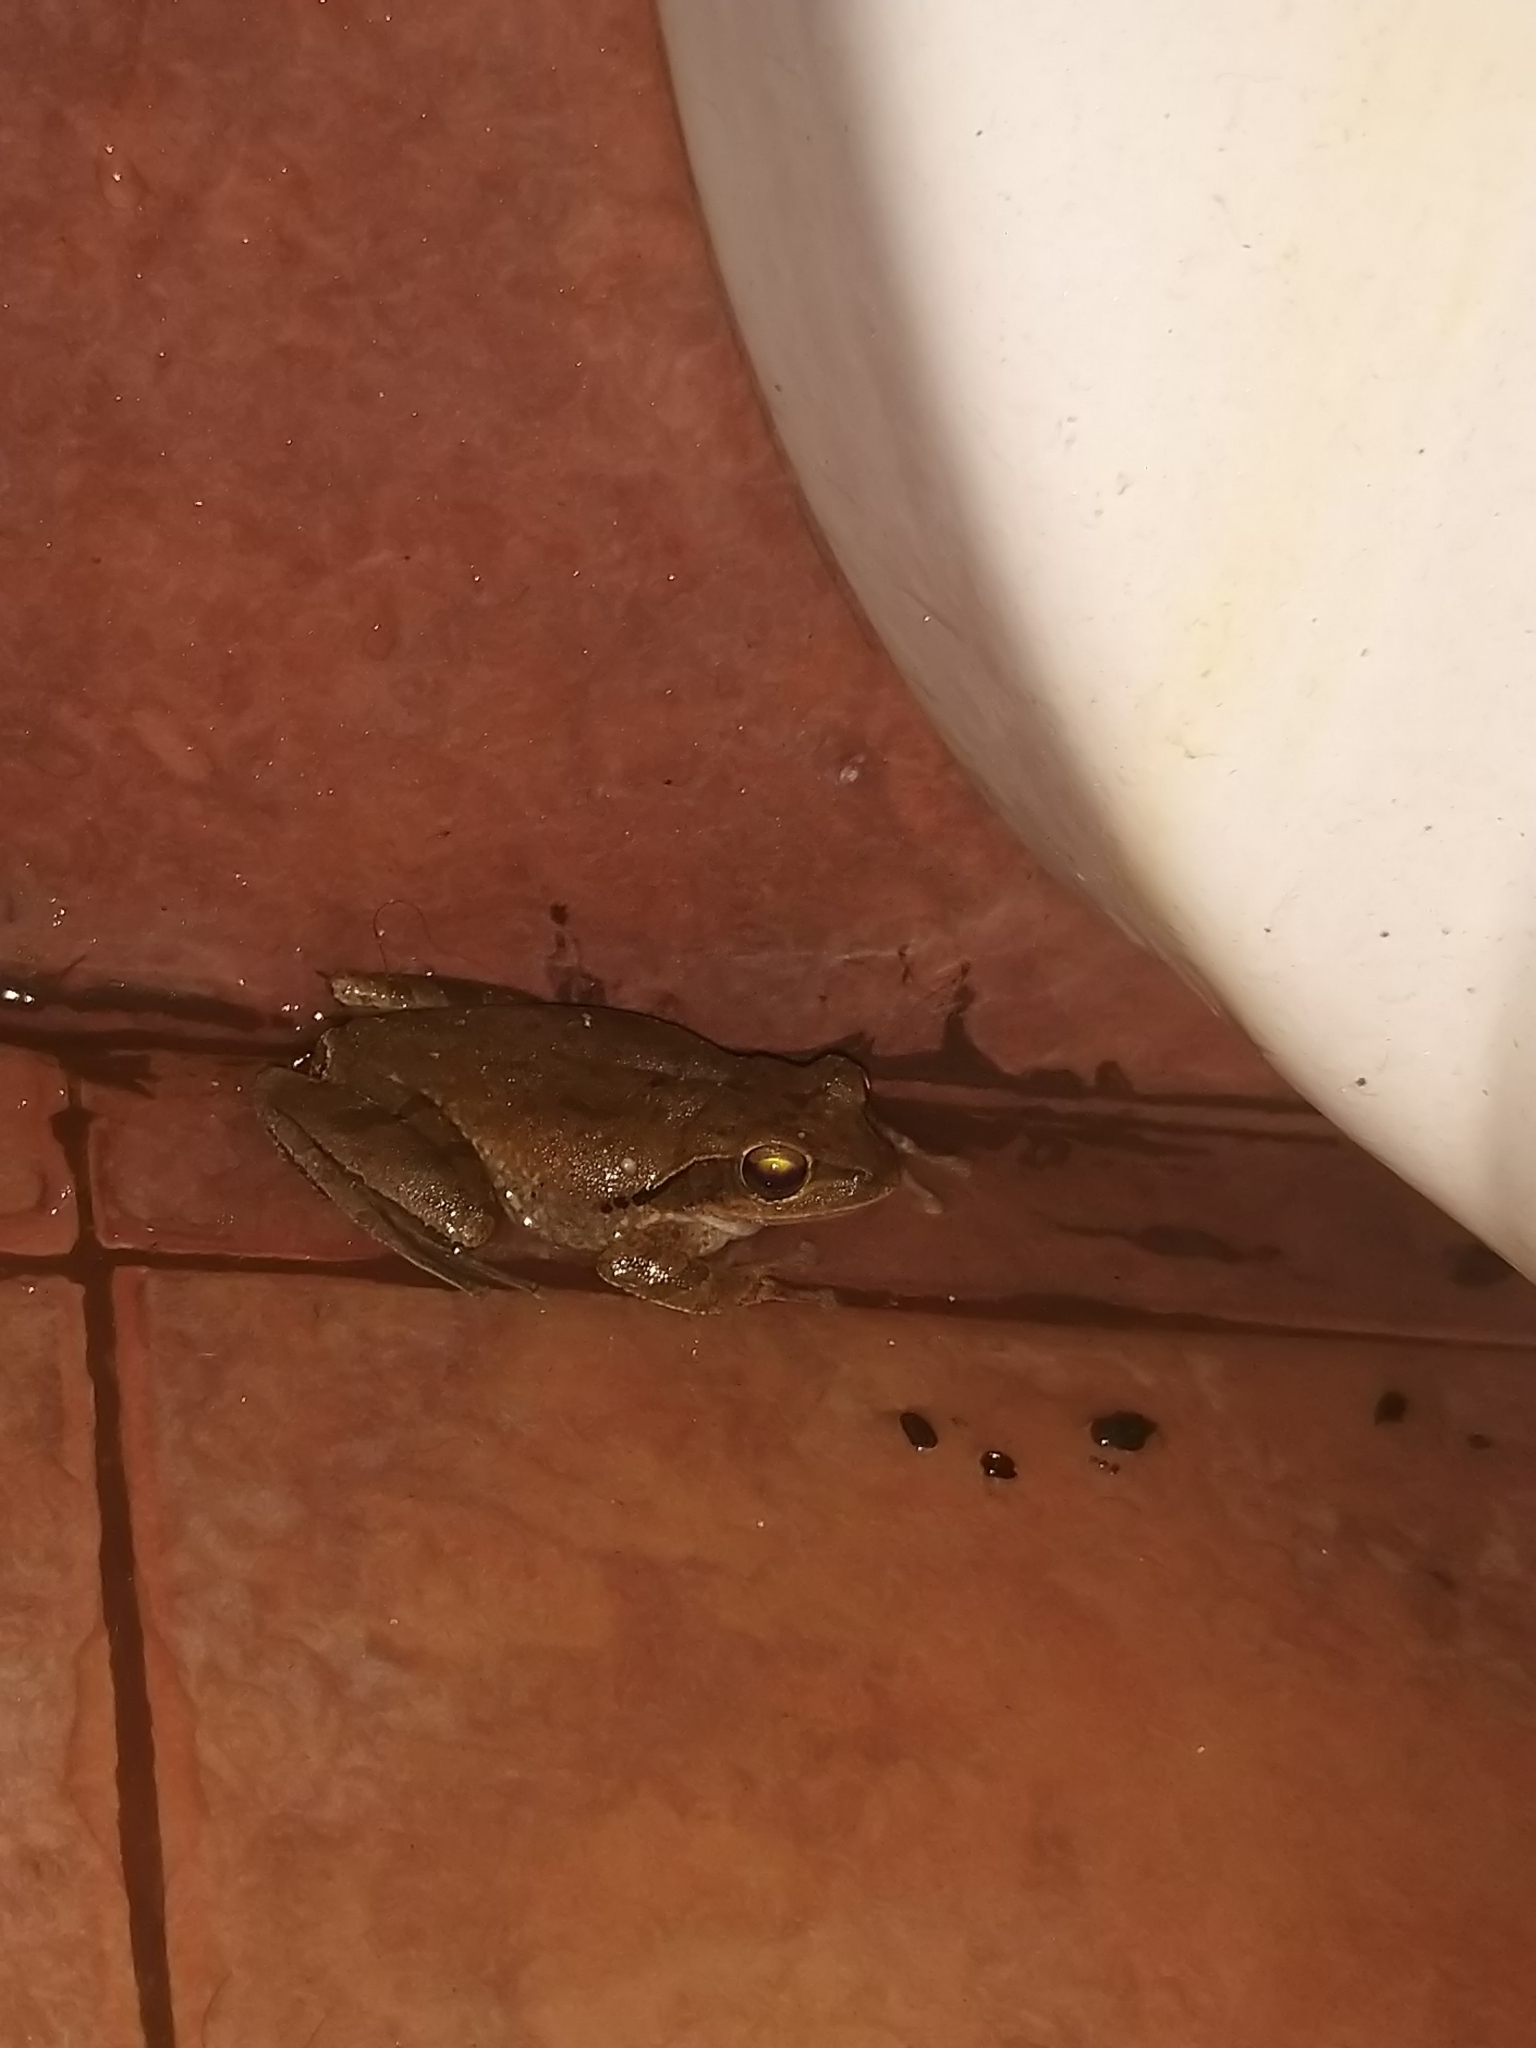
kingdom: Animalia
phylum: Chordata
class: Amphibia
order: Anura
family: Rhacophoridae
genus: Polypedates
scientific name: Polypedates maculatus
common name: Himalayan tree frog
